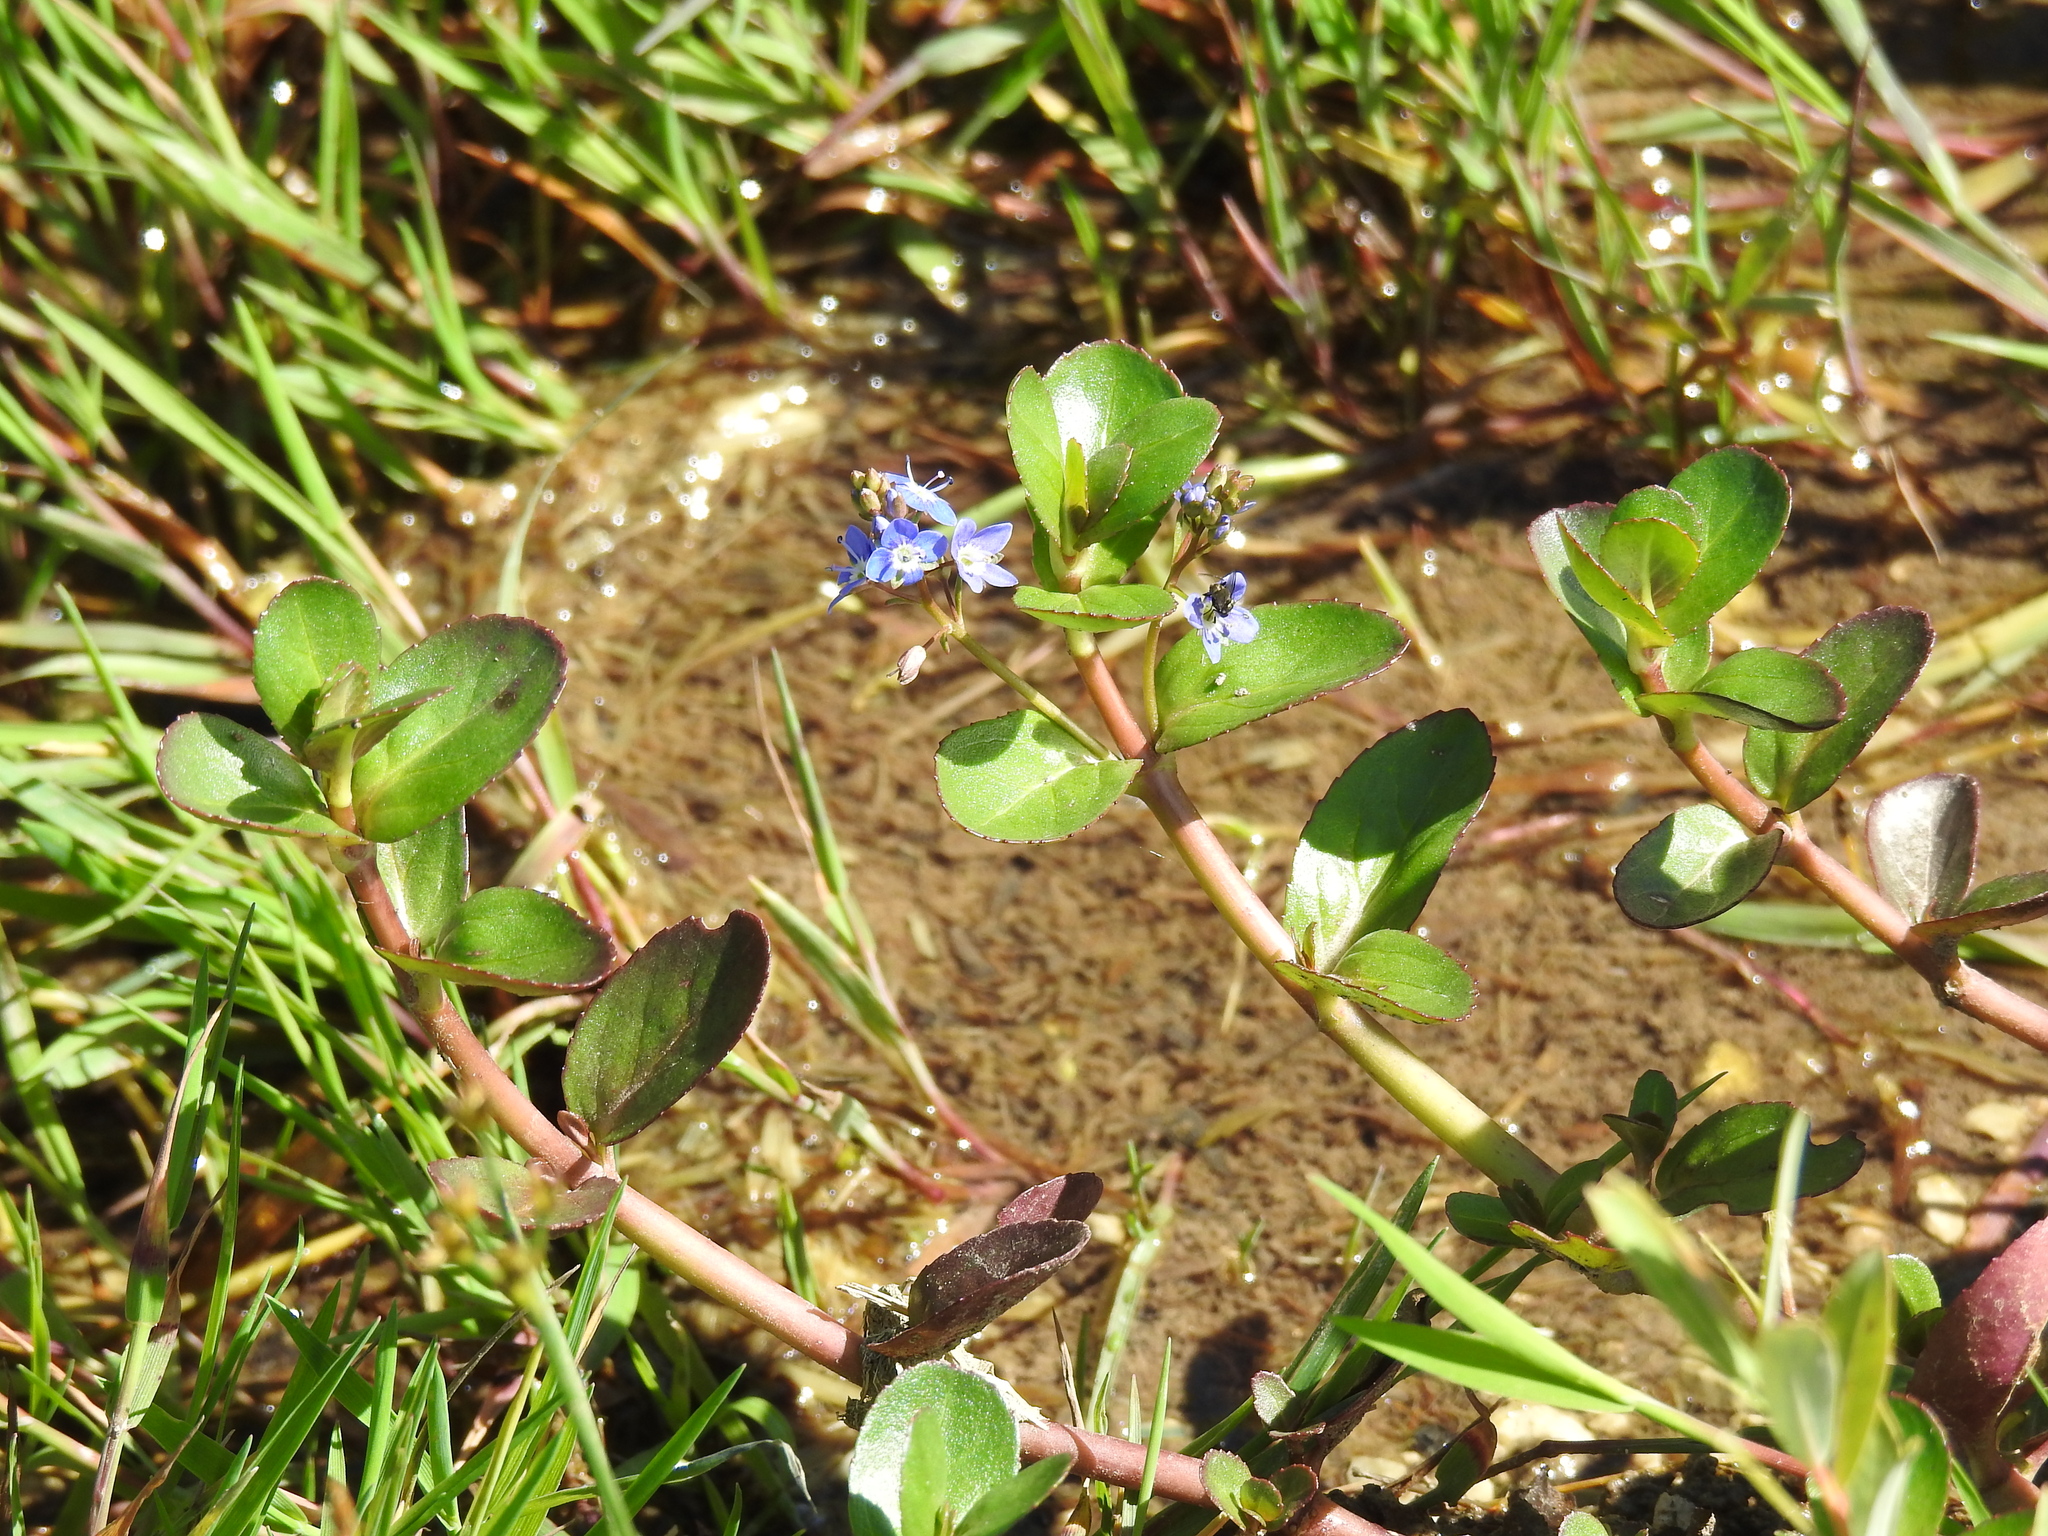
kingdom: Plantae
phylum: Tracheophyta
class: Magnoliopsida
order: Lamiales
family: Plantaginaceae
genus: Veronica
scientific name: Veronica beccabunga
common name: Brooklime
